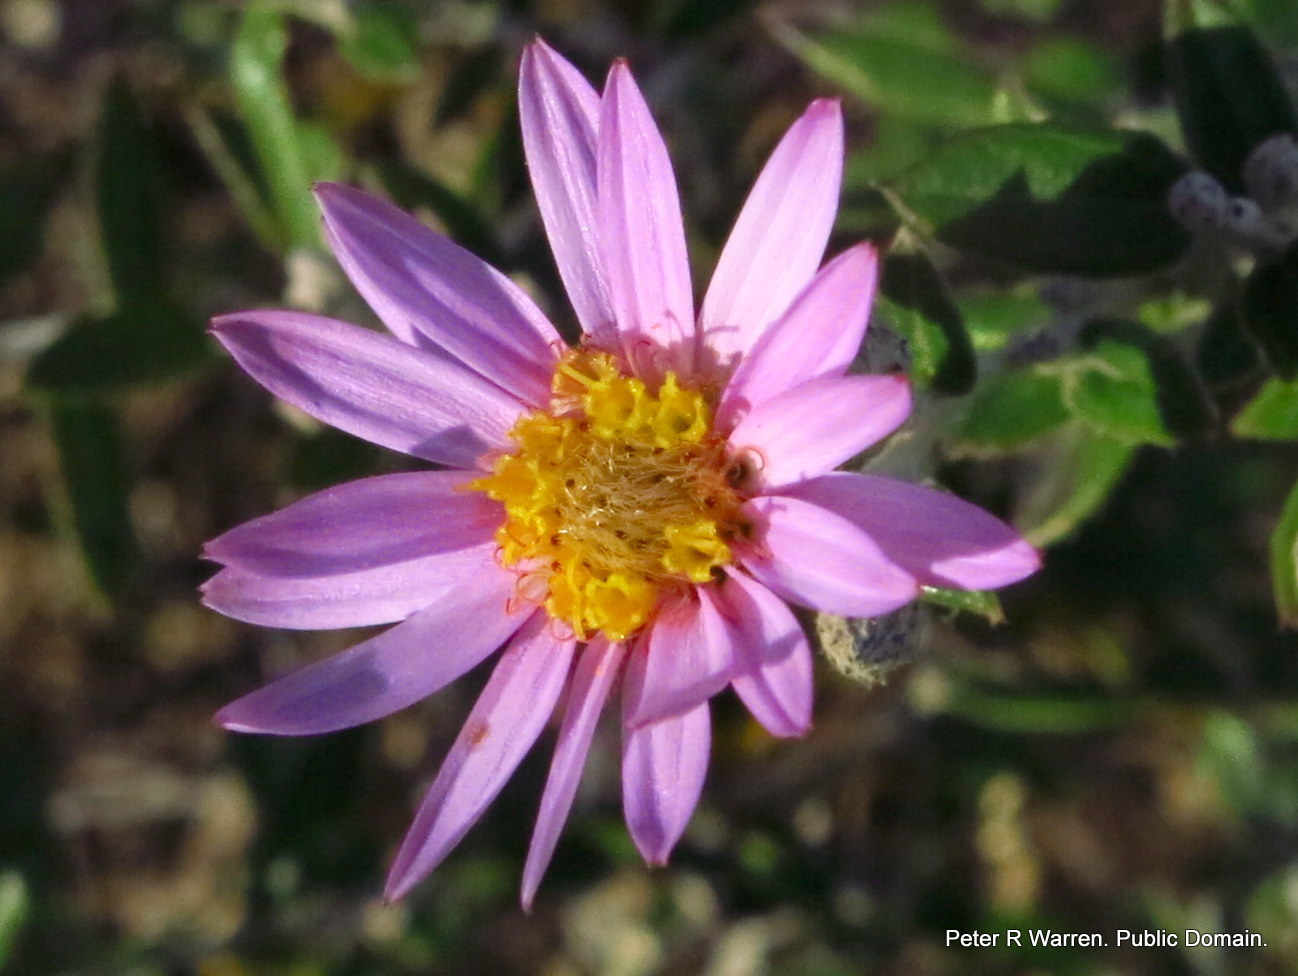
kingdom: Plantae
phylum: Tracheophyta
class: Magnoliopsida
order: Asterales
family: Asteraceae
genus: Athrixia
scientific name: Athrixia phylicoides
